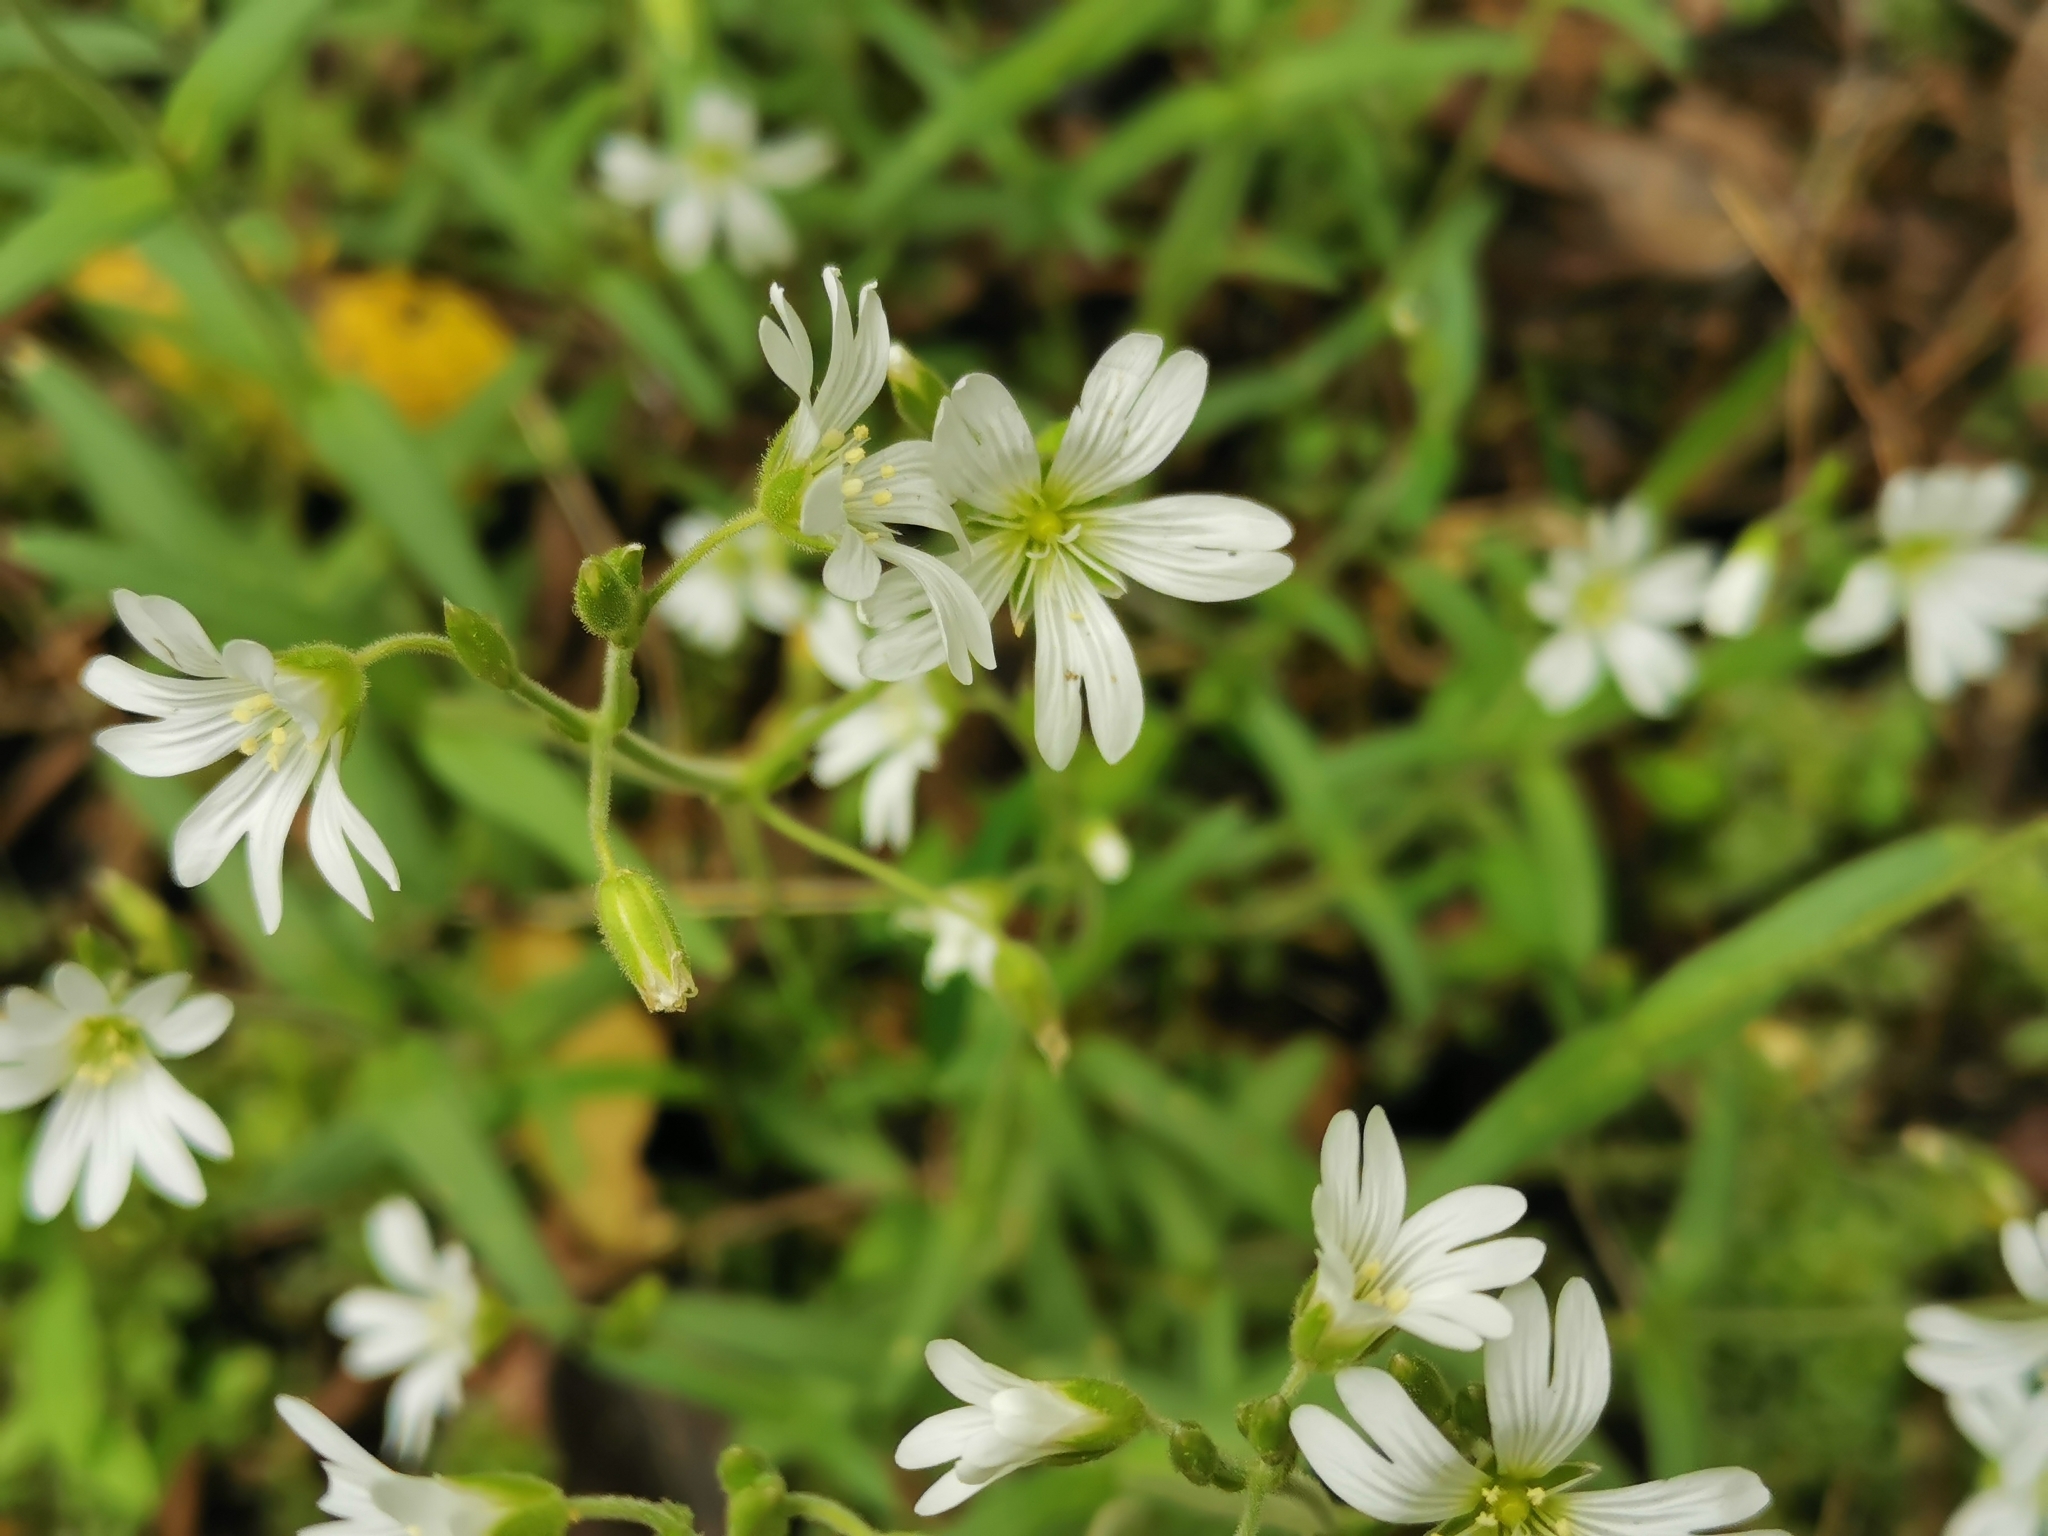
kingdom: Plantae
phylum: Tracheophyta
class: Magnoliopsida
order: Caryophyllales
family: Caryophyllaceae
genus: Cerastium
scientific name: Cerastium arvense
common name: Field mouse-ear
